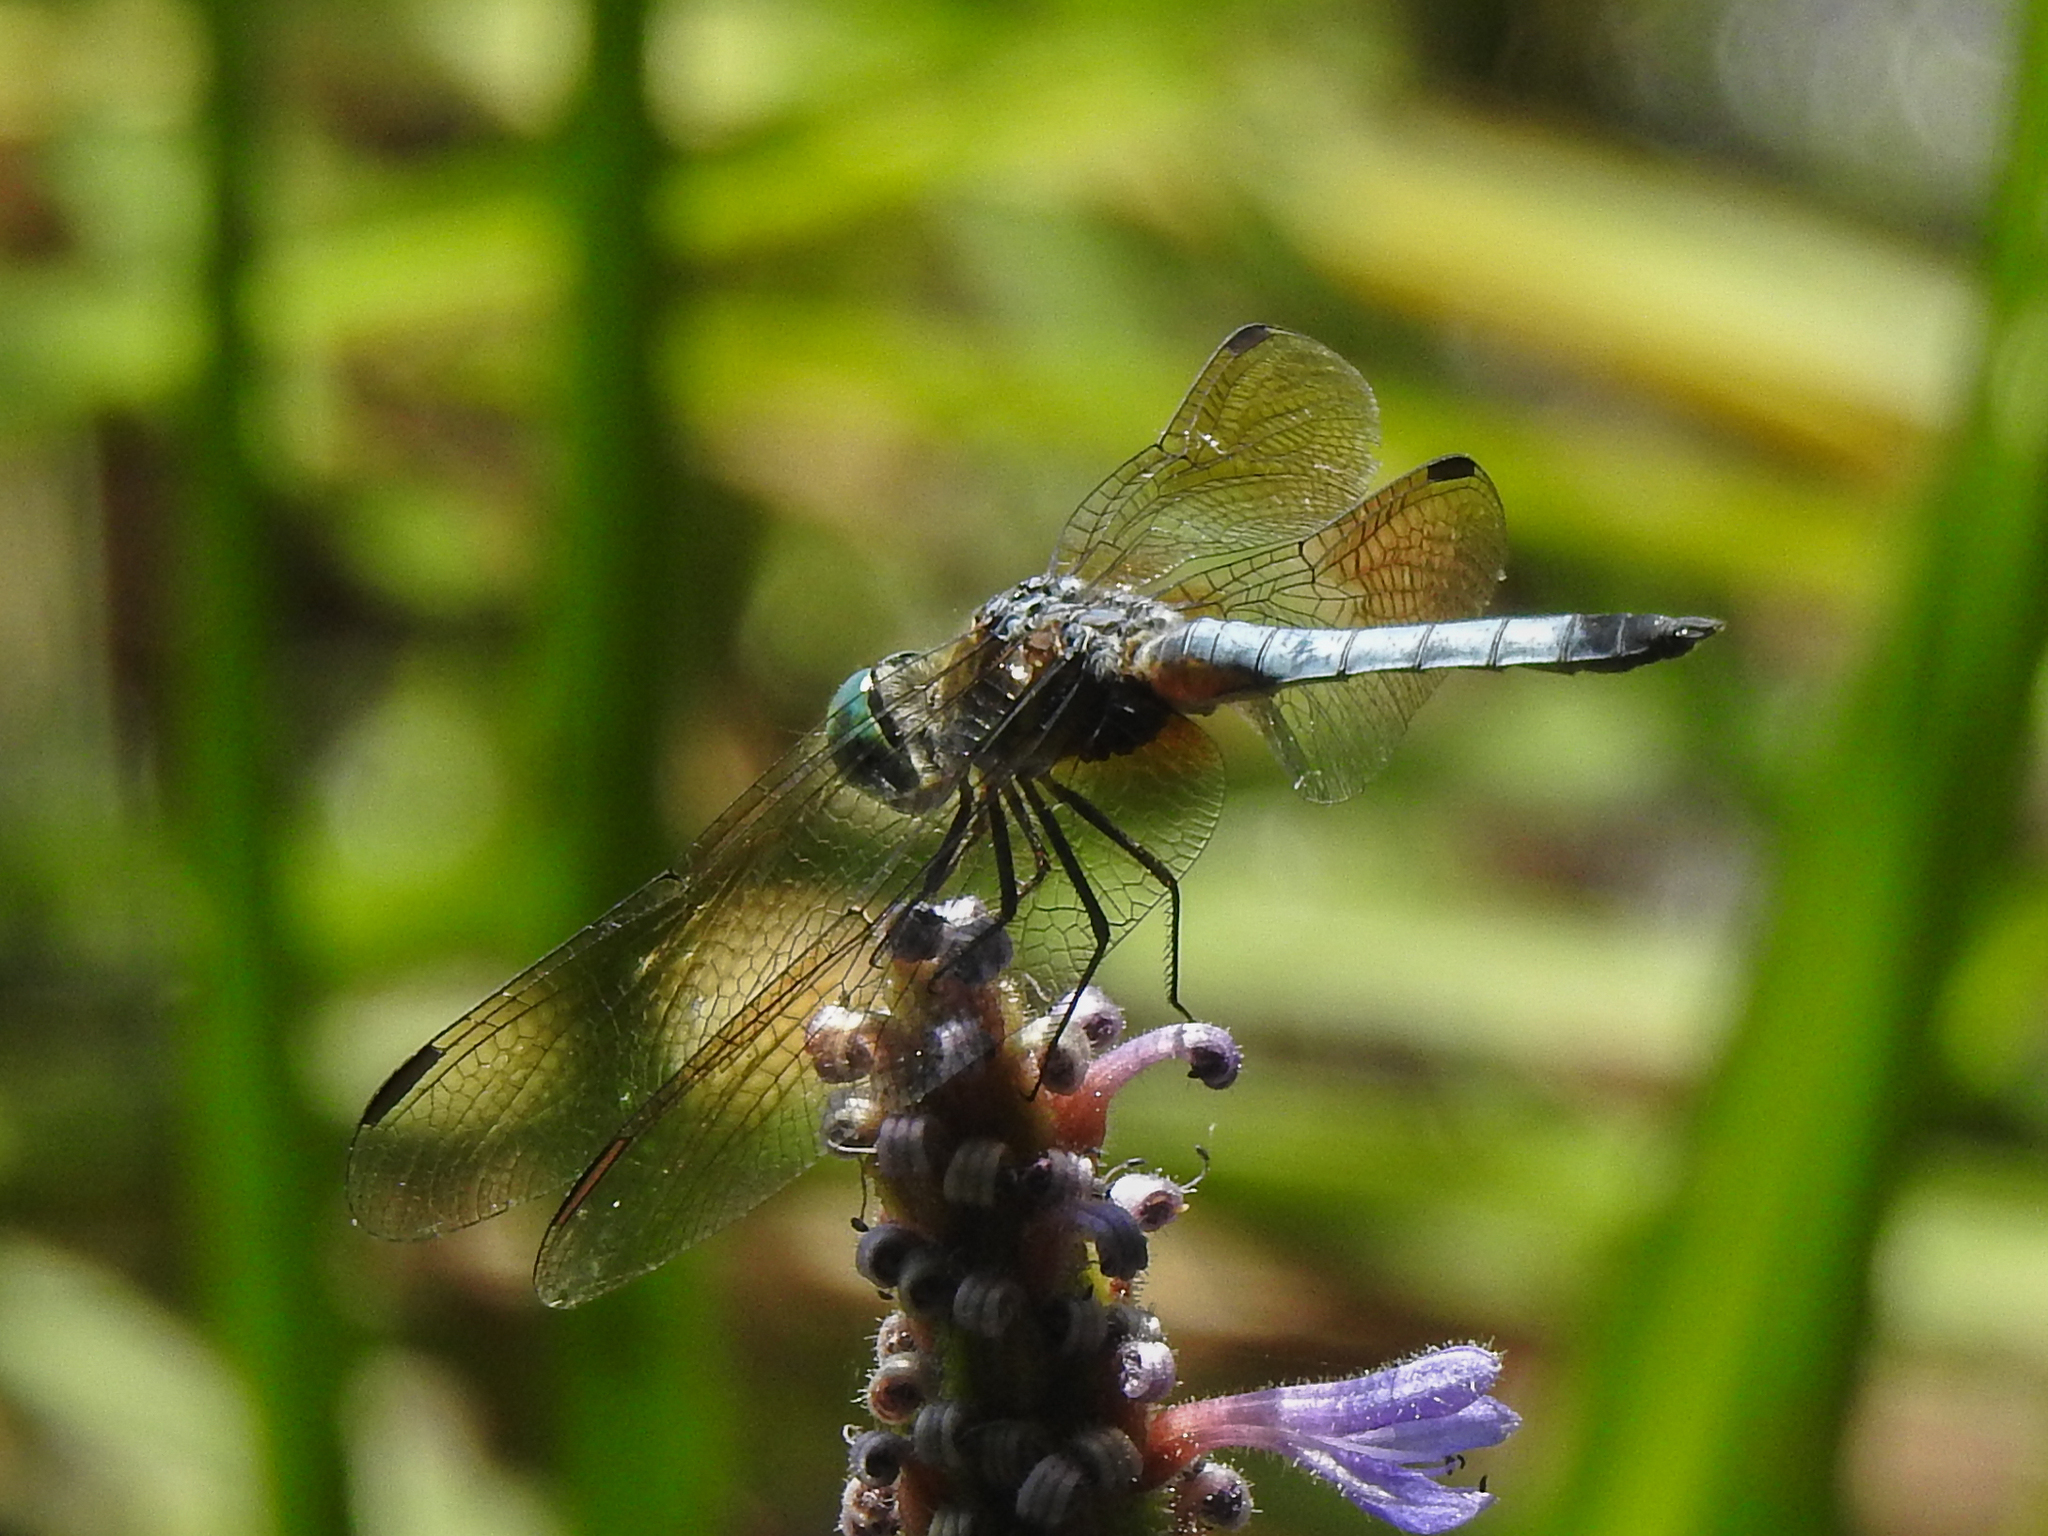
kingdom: Animalia
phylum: Arthropoda
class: Insecta
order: Odonata
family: Libellulidae
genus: Pachydiplax
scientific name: Pachydiplax longipennis
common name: Blue dasher
